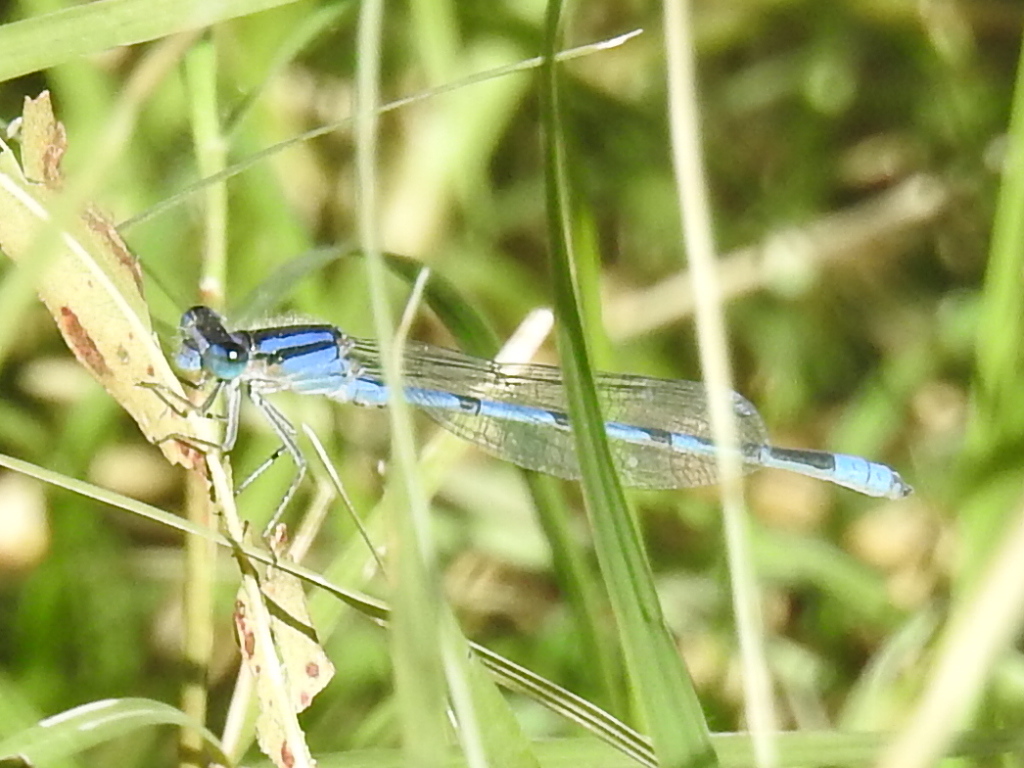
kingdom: Animalia
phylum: Arthropoda
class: Insecta
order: Odonata
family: Coenagrionidae
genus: Enallagma
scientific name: Enallagma civile
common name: Damselfly
